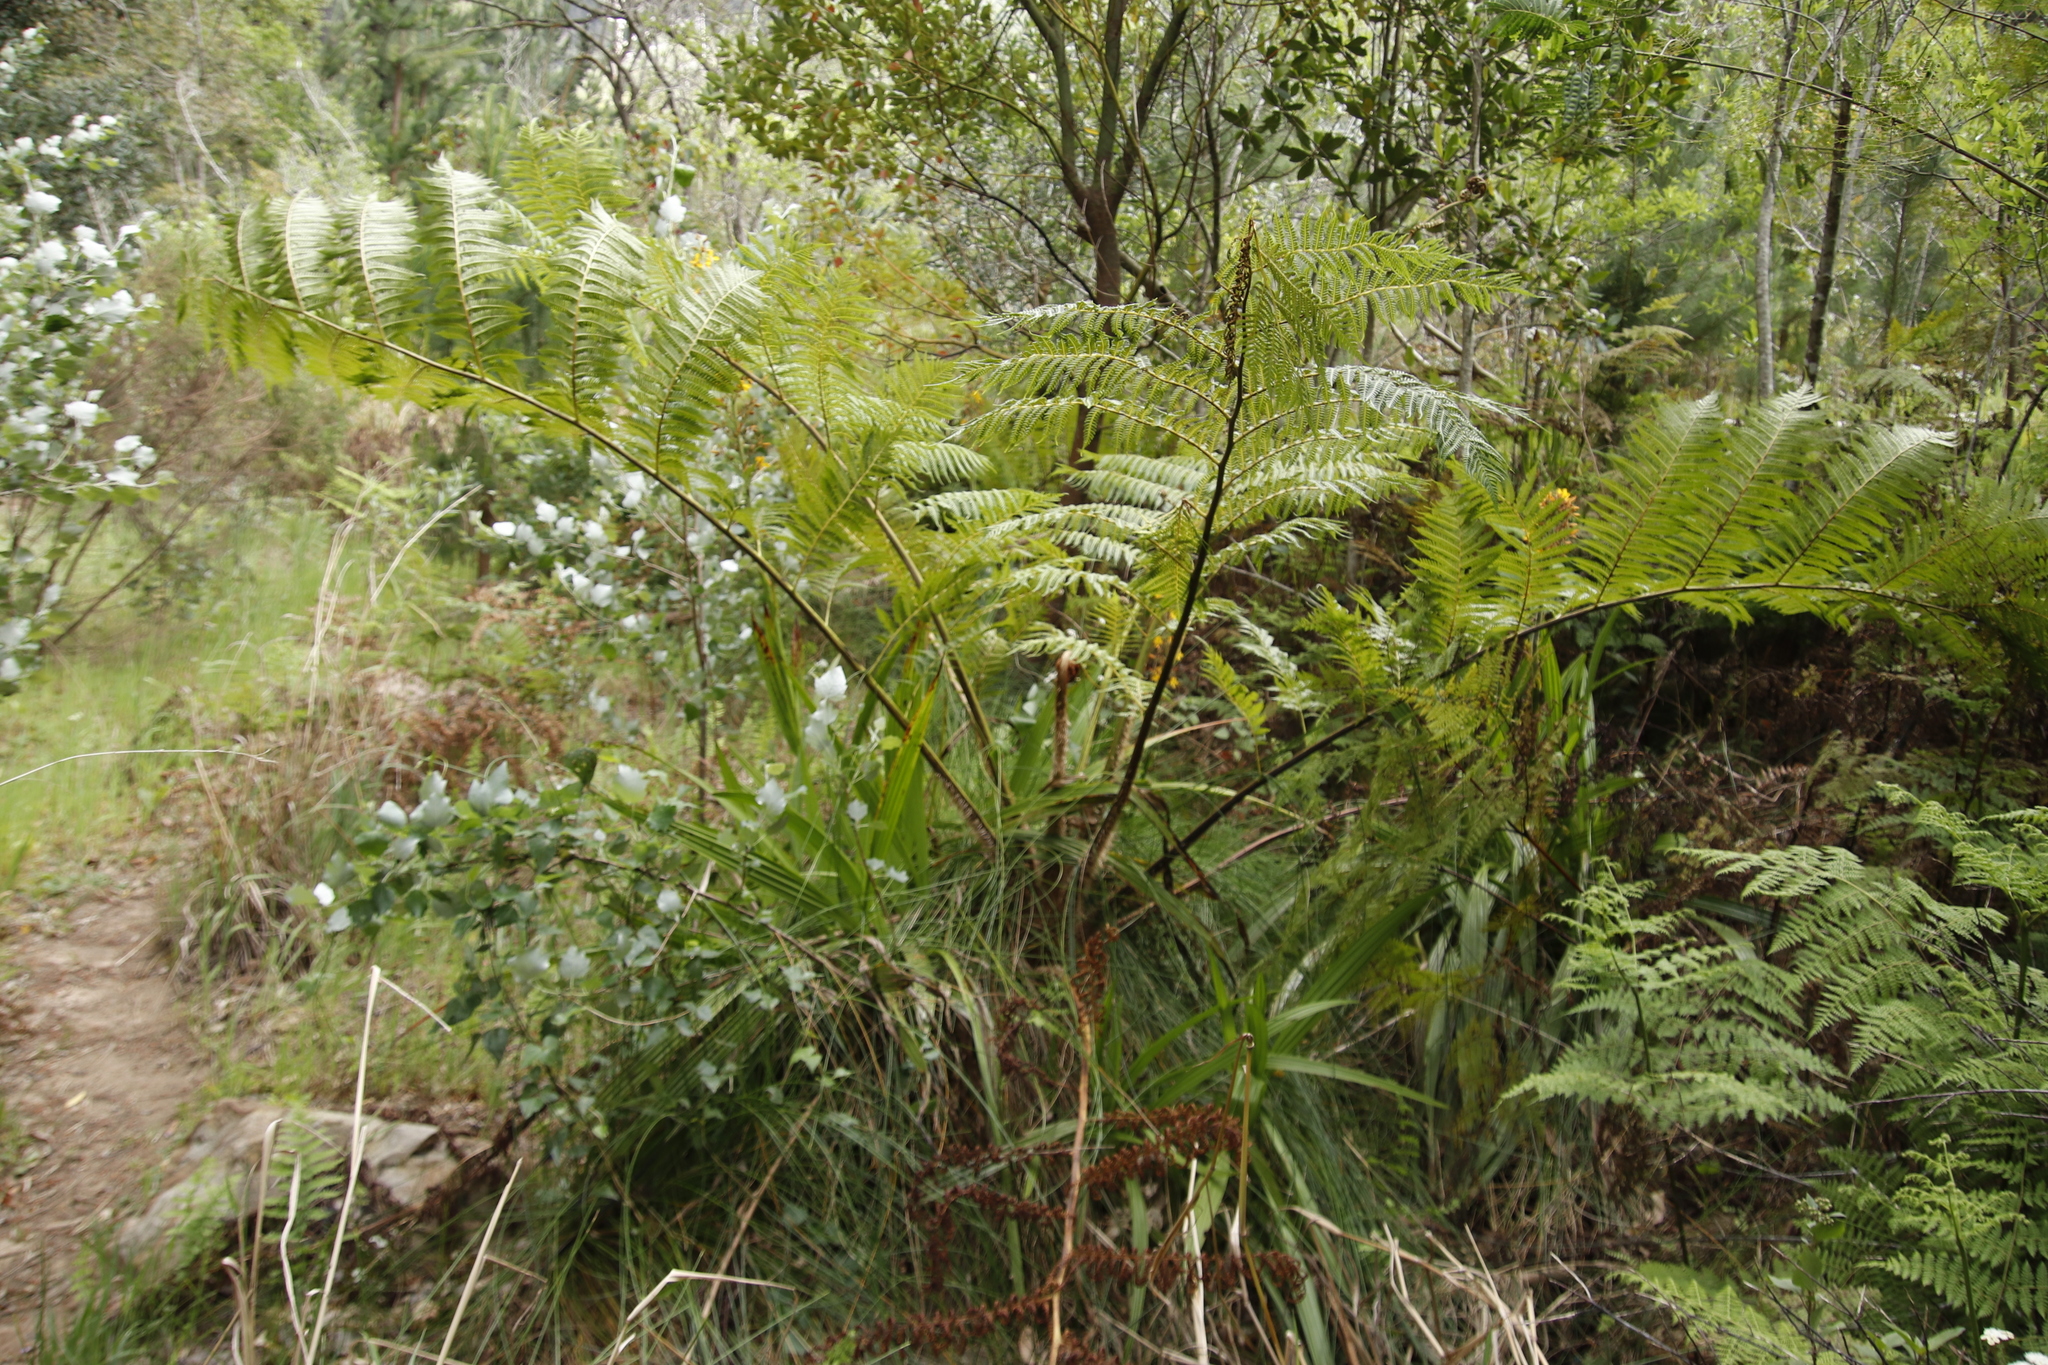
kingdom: Plantae
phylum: Tracheophyta
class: Polypodiopsida
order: Cyatheales
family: Cyatheaceae
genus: Sphaeropteris
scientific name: Sphaeropteris cooperi
